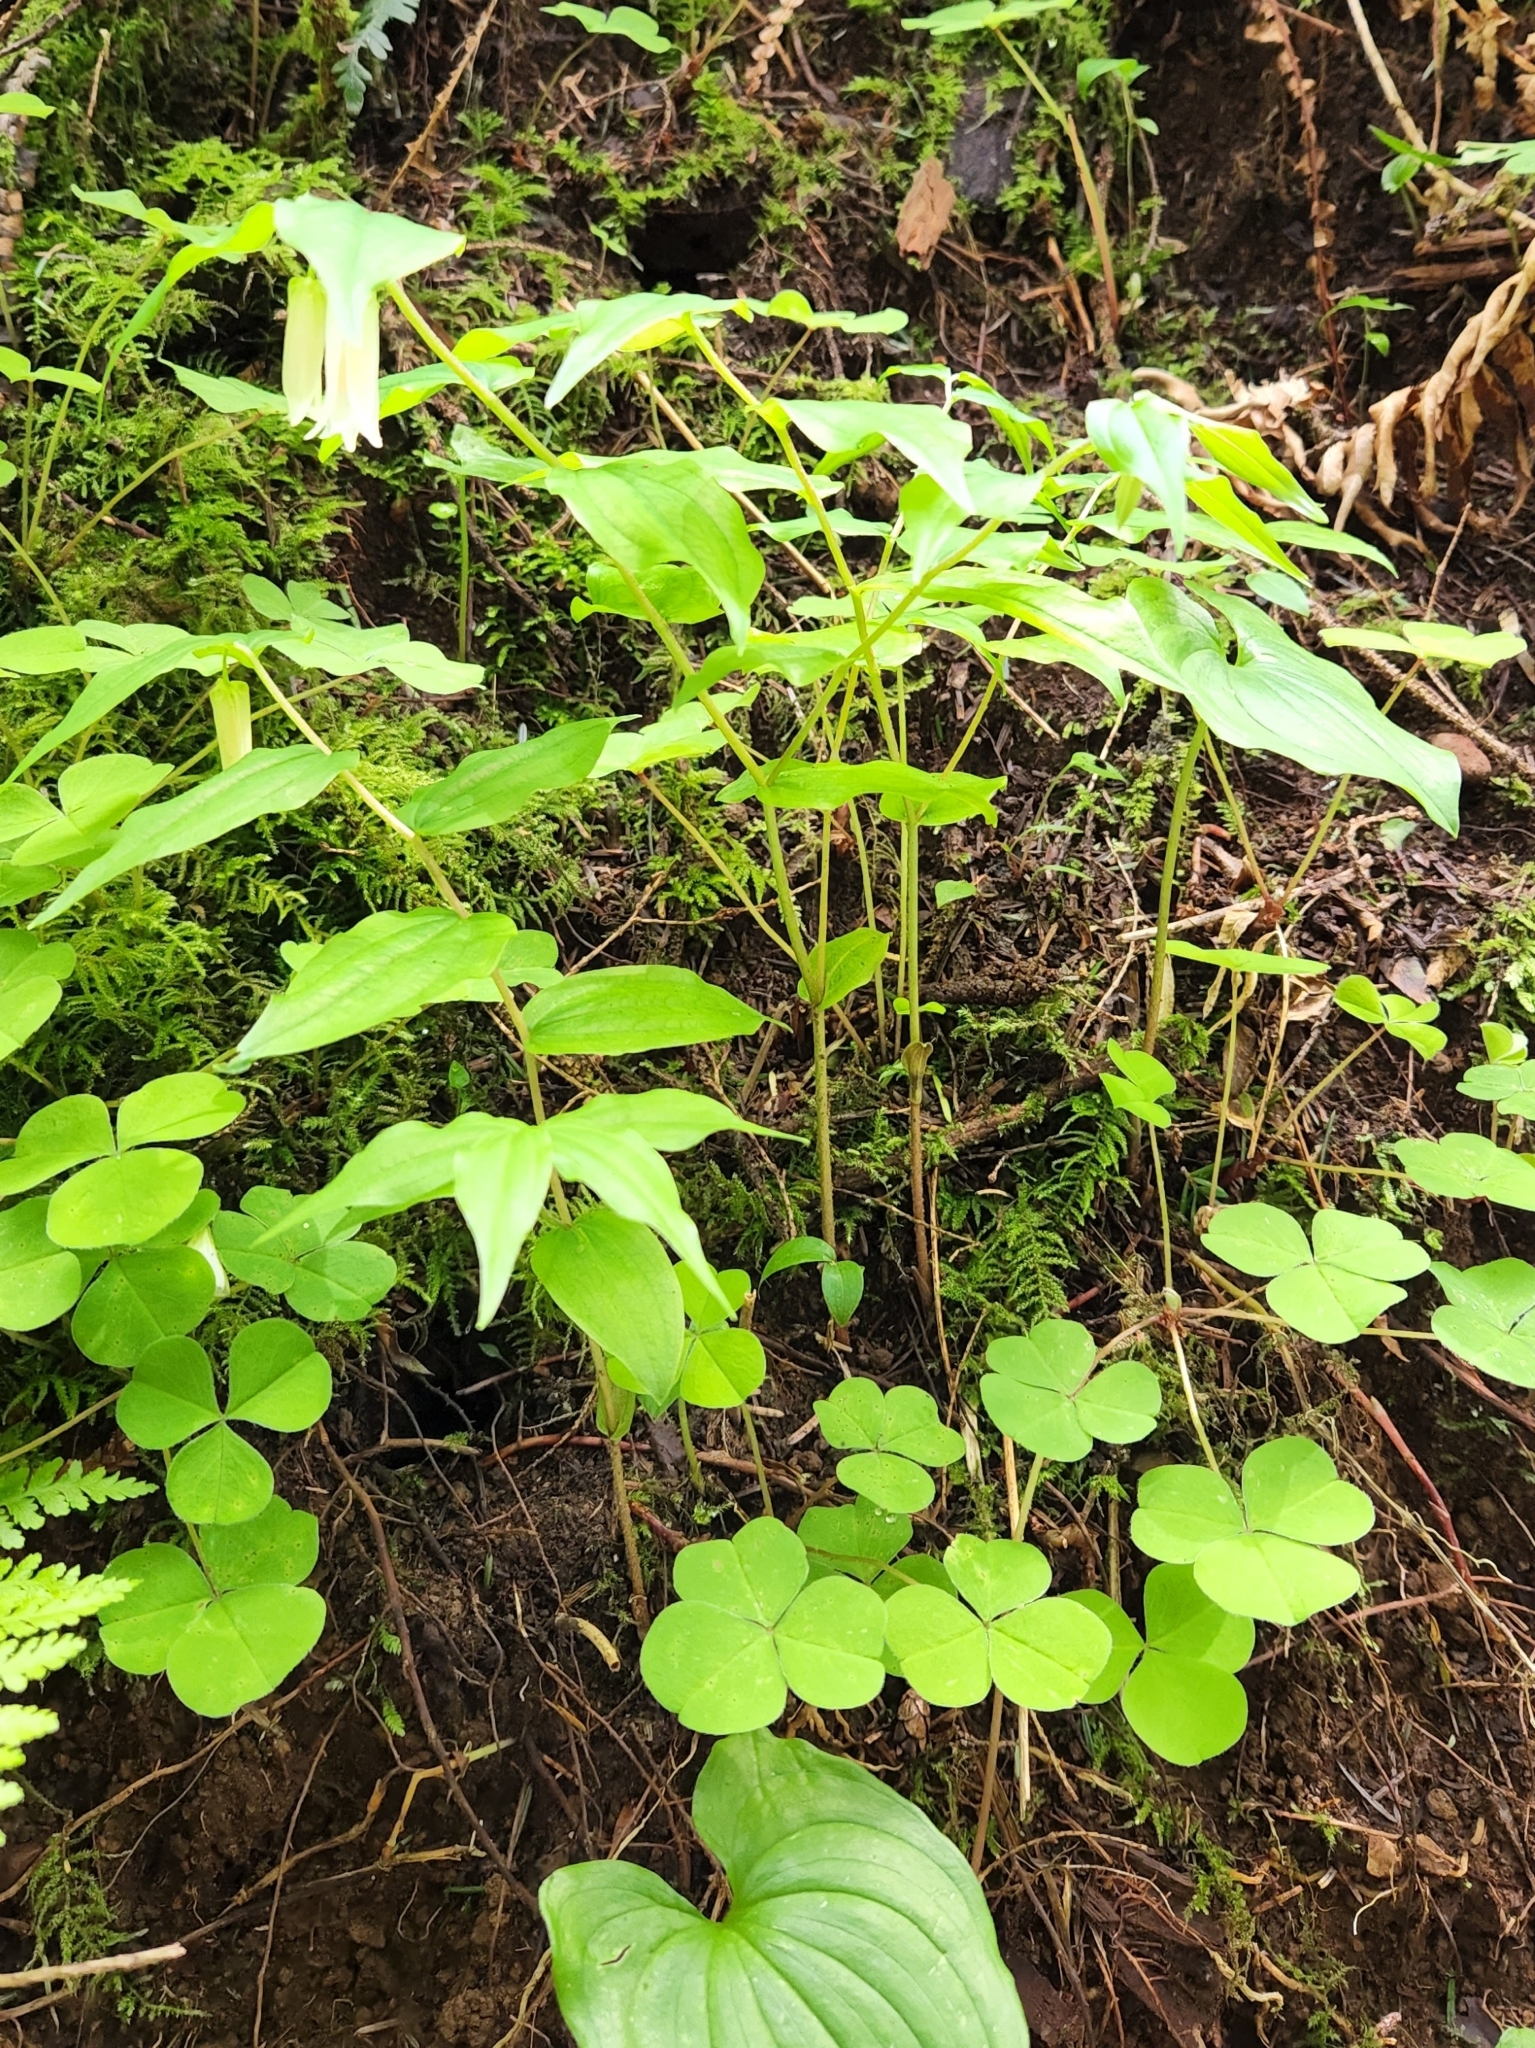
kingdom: Plantae
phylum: Tracheophyta
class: Liliopsida
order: Liliales
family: Liliaceae
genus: Prosartes
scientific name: Prosartes smithii
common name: Fairy-lantern
